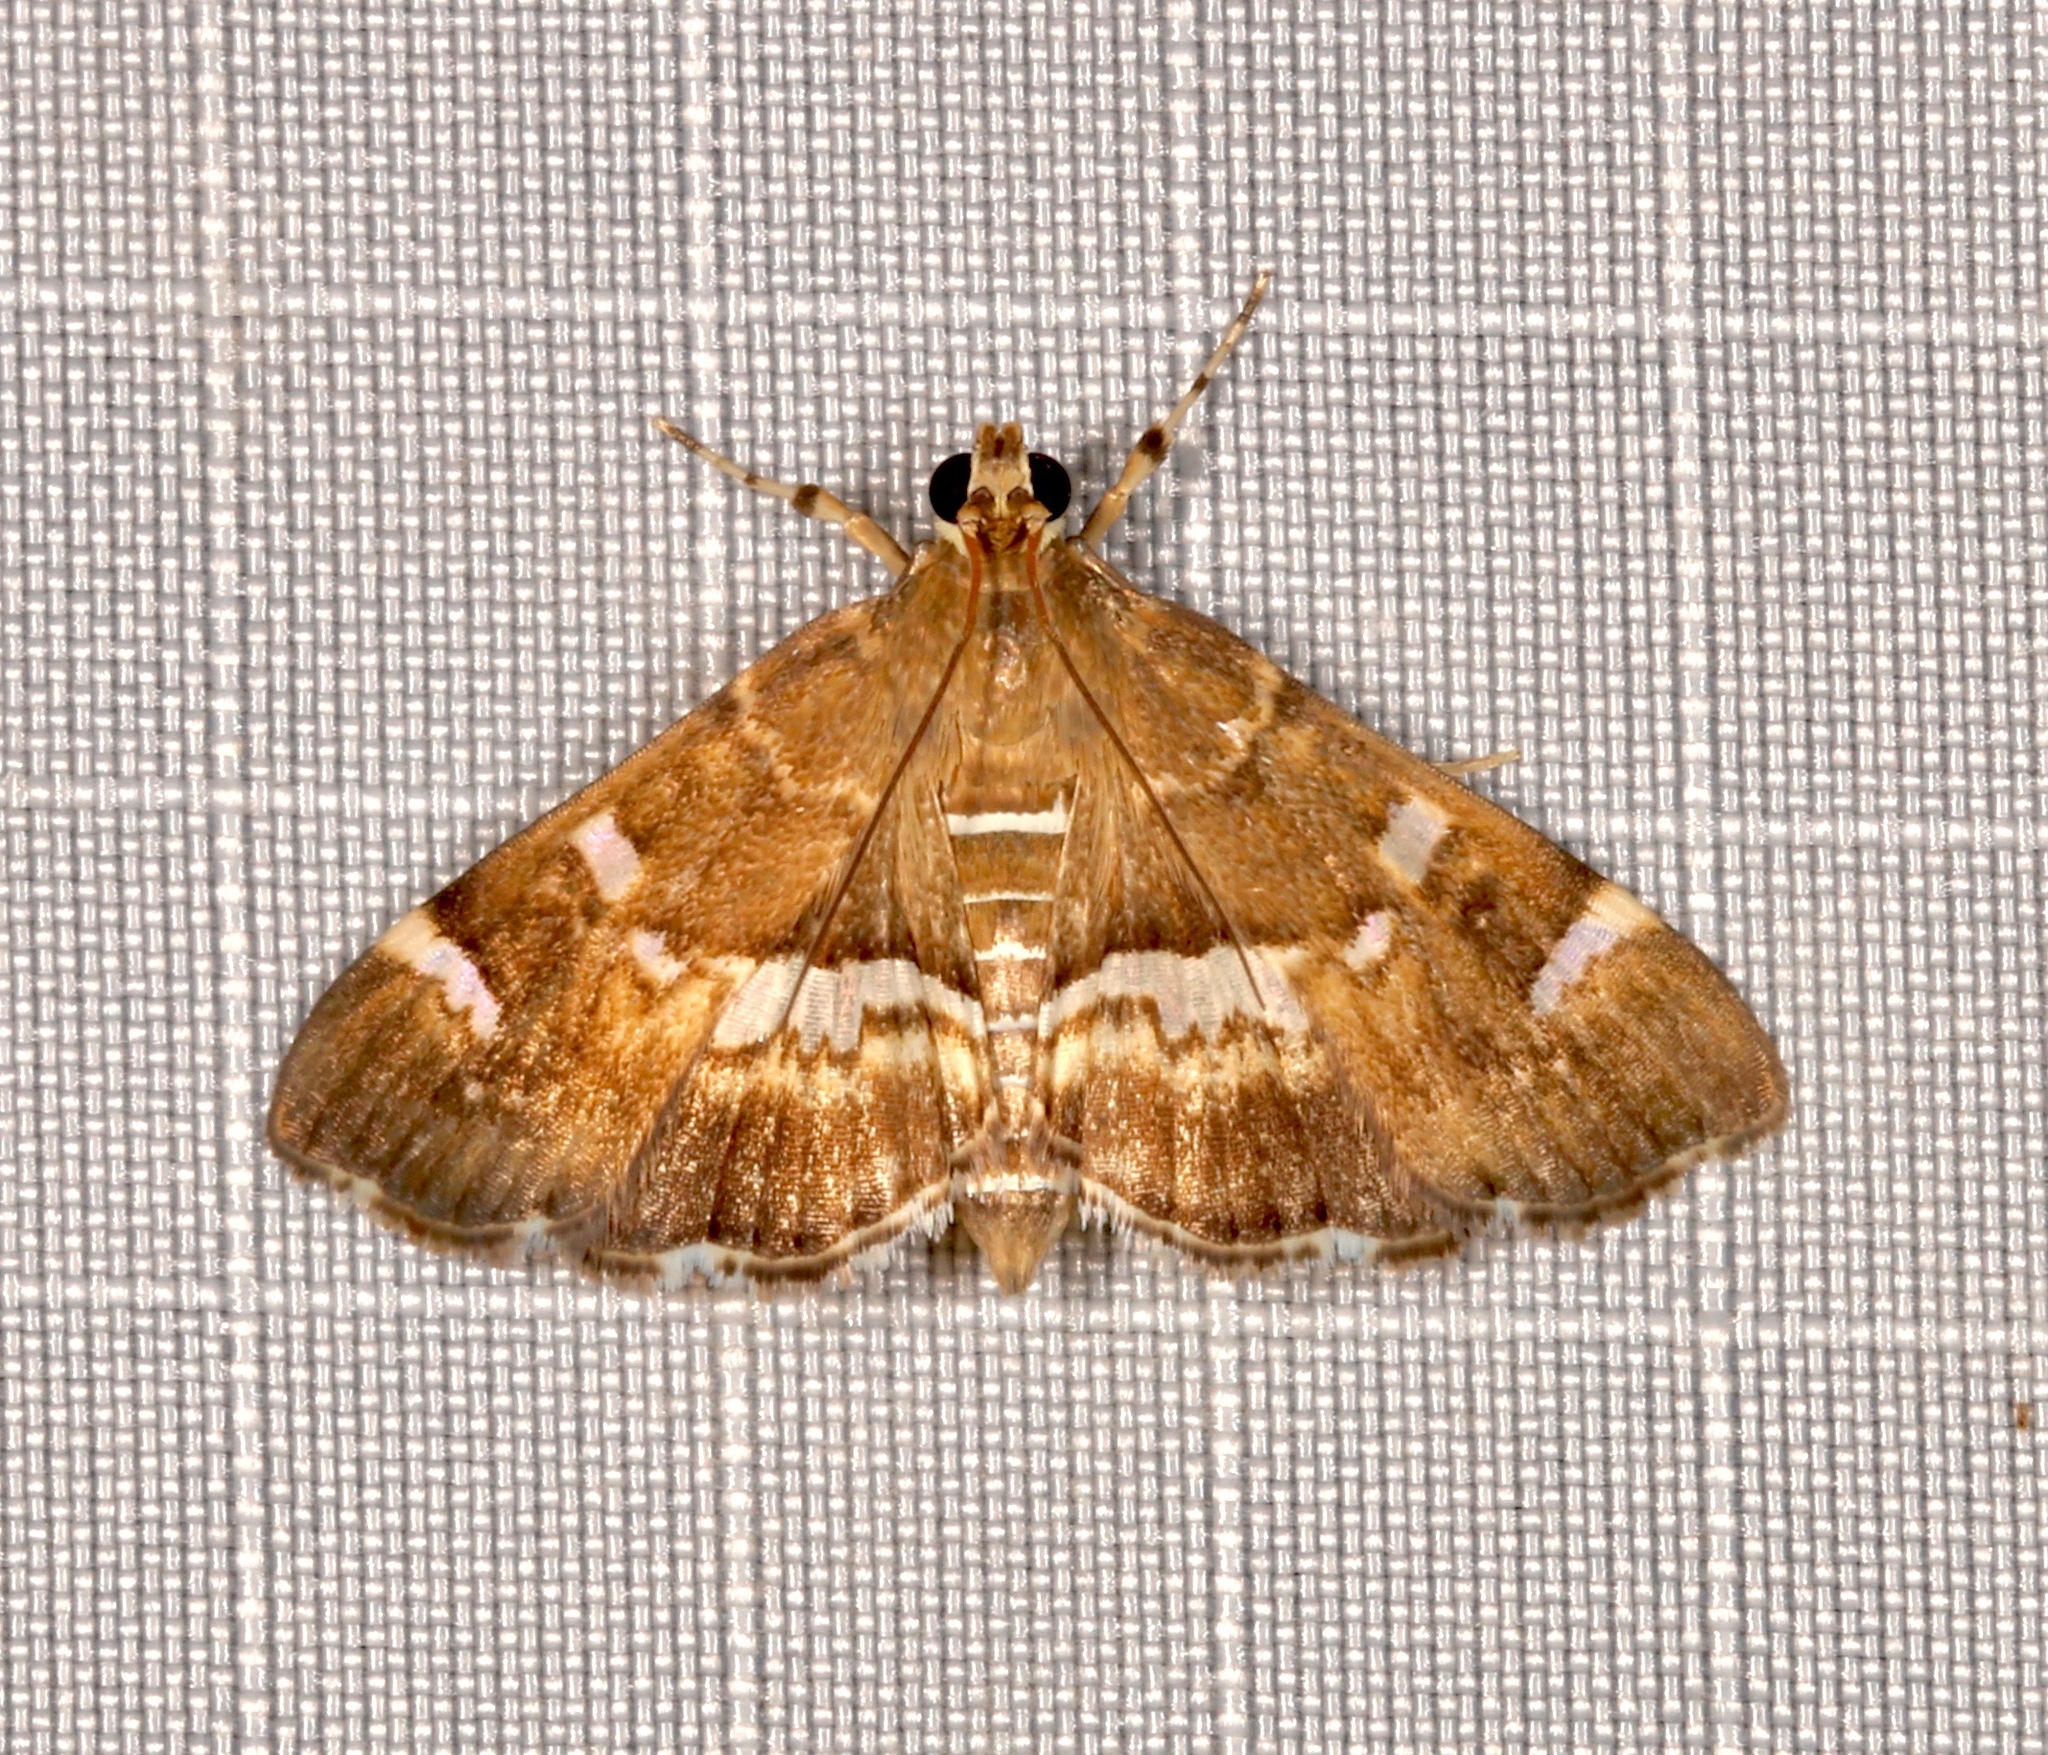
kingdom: Animalia
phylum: Arthropoda
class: Insecta
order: Lepidoptera
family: Crambidae
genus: Hymenia
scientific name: Hymenia perspectalis
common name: Spotted beet webworm
